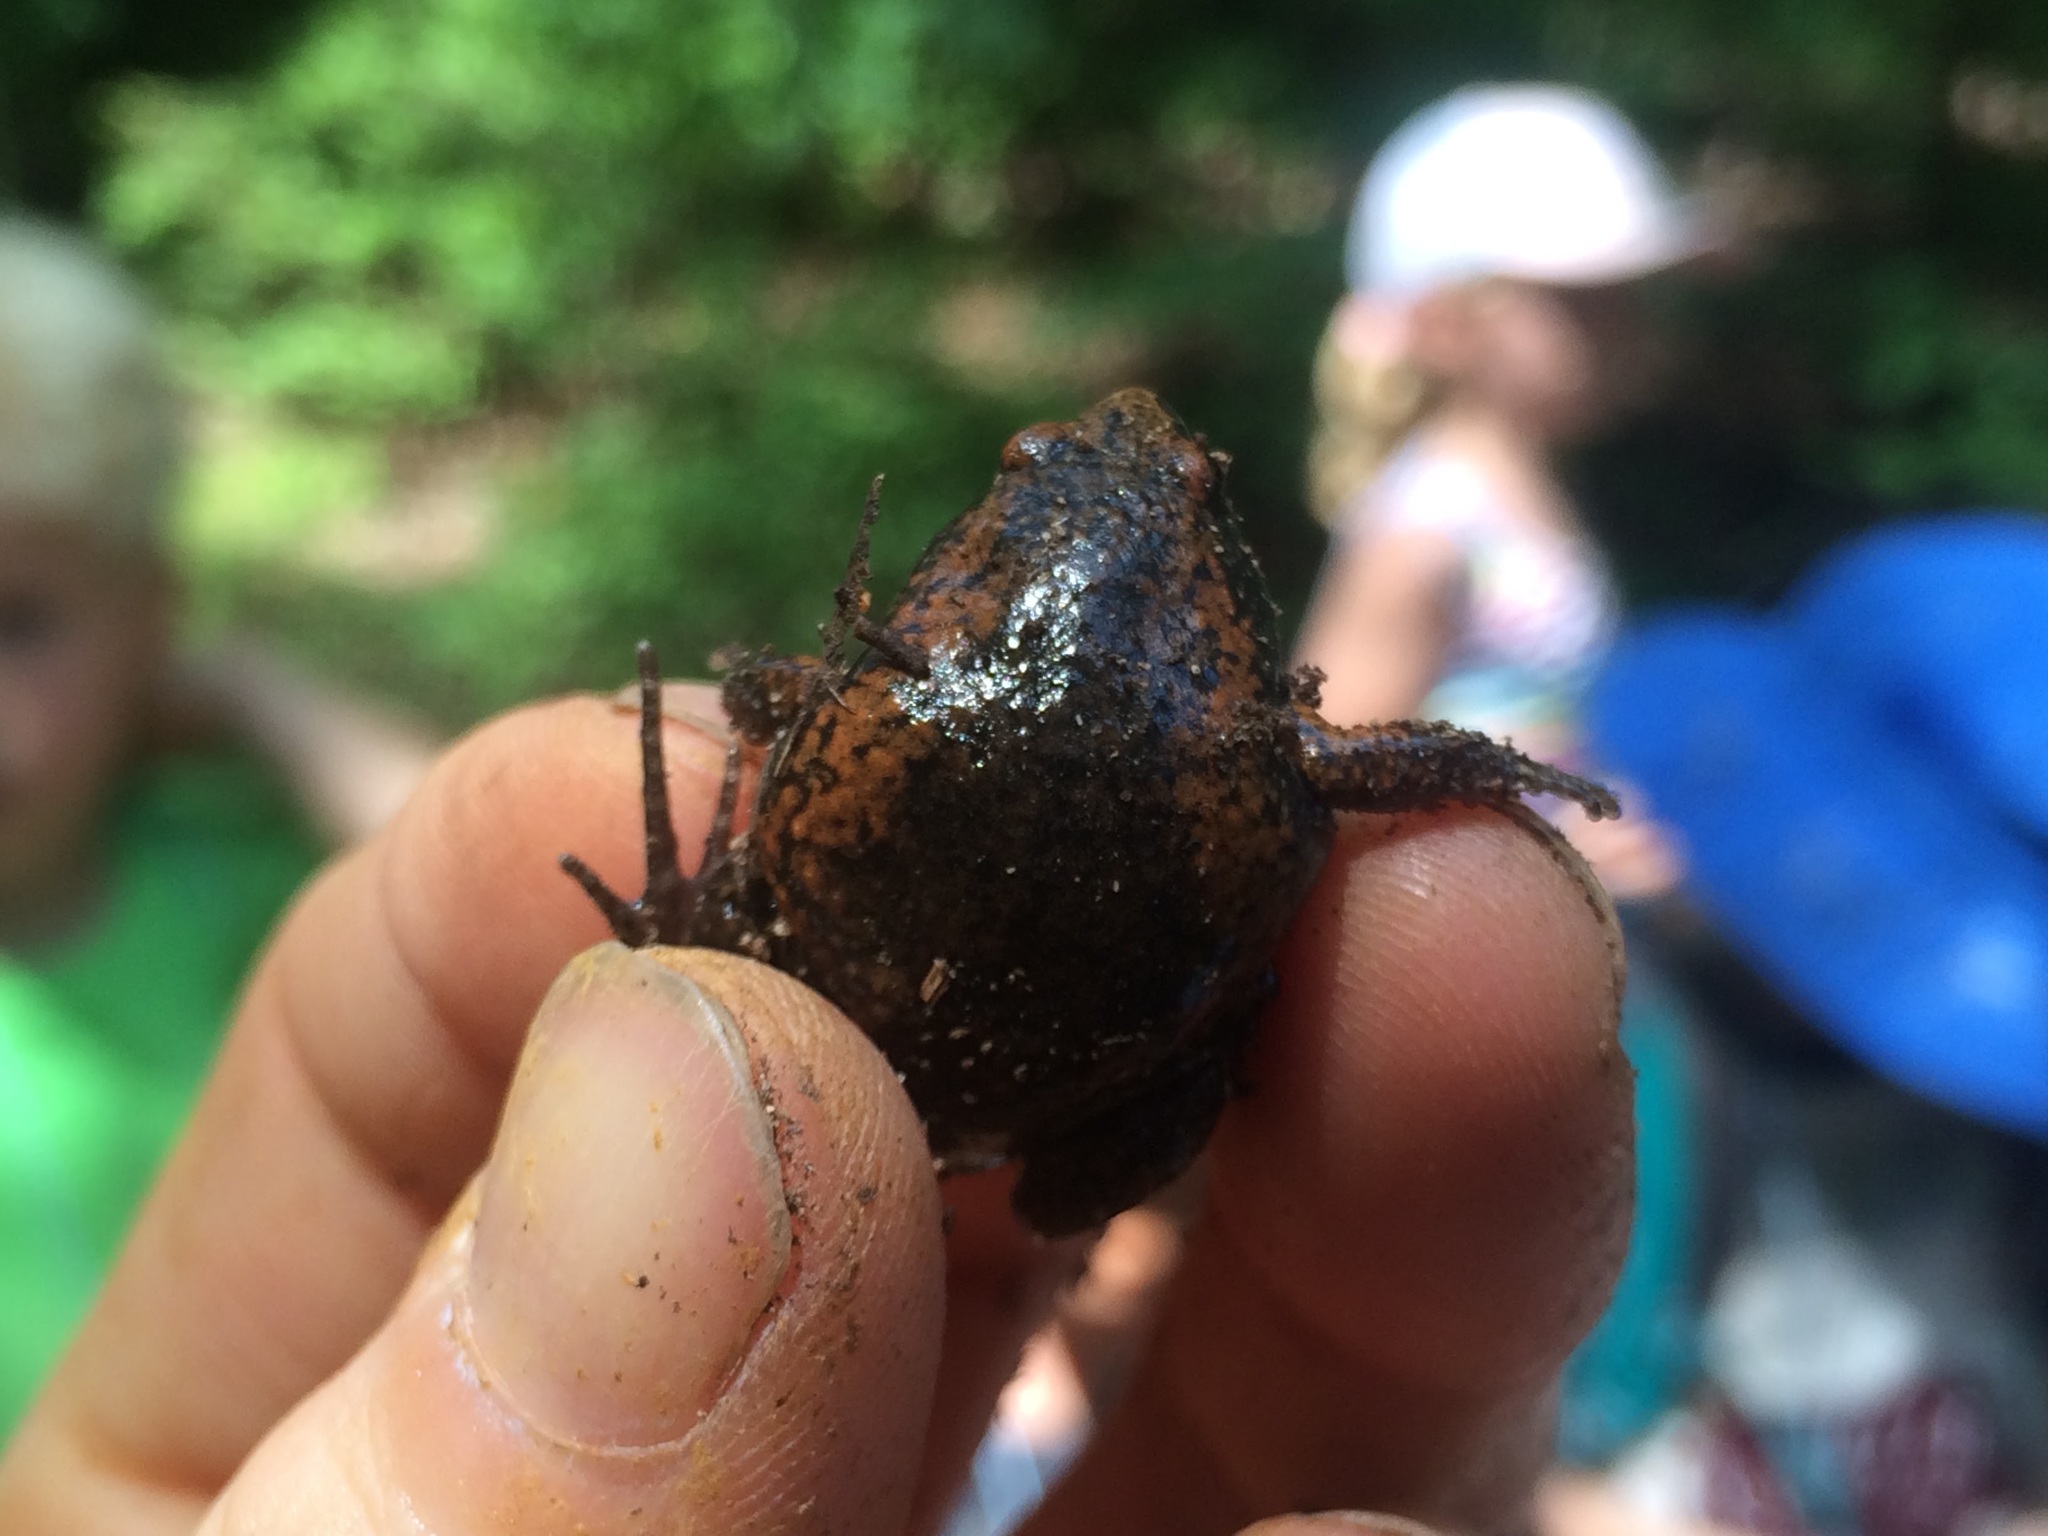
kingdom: Animalia
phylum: Chordata
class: Amphibia
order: Anura
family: Microhylidae
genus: Gastrophryne
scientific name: Gastrophryne carolinensis
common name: Eastern narrowmouth toad
